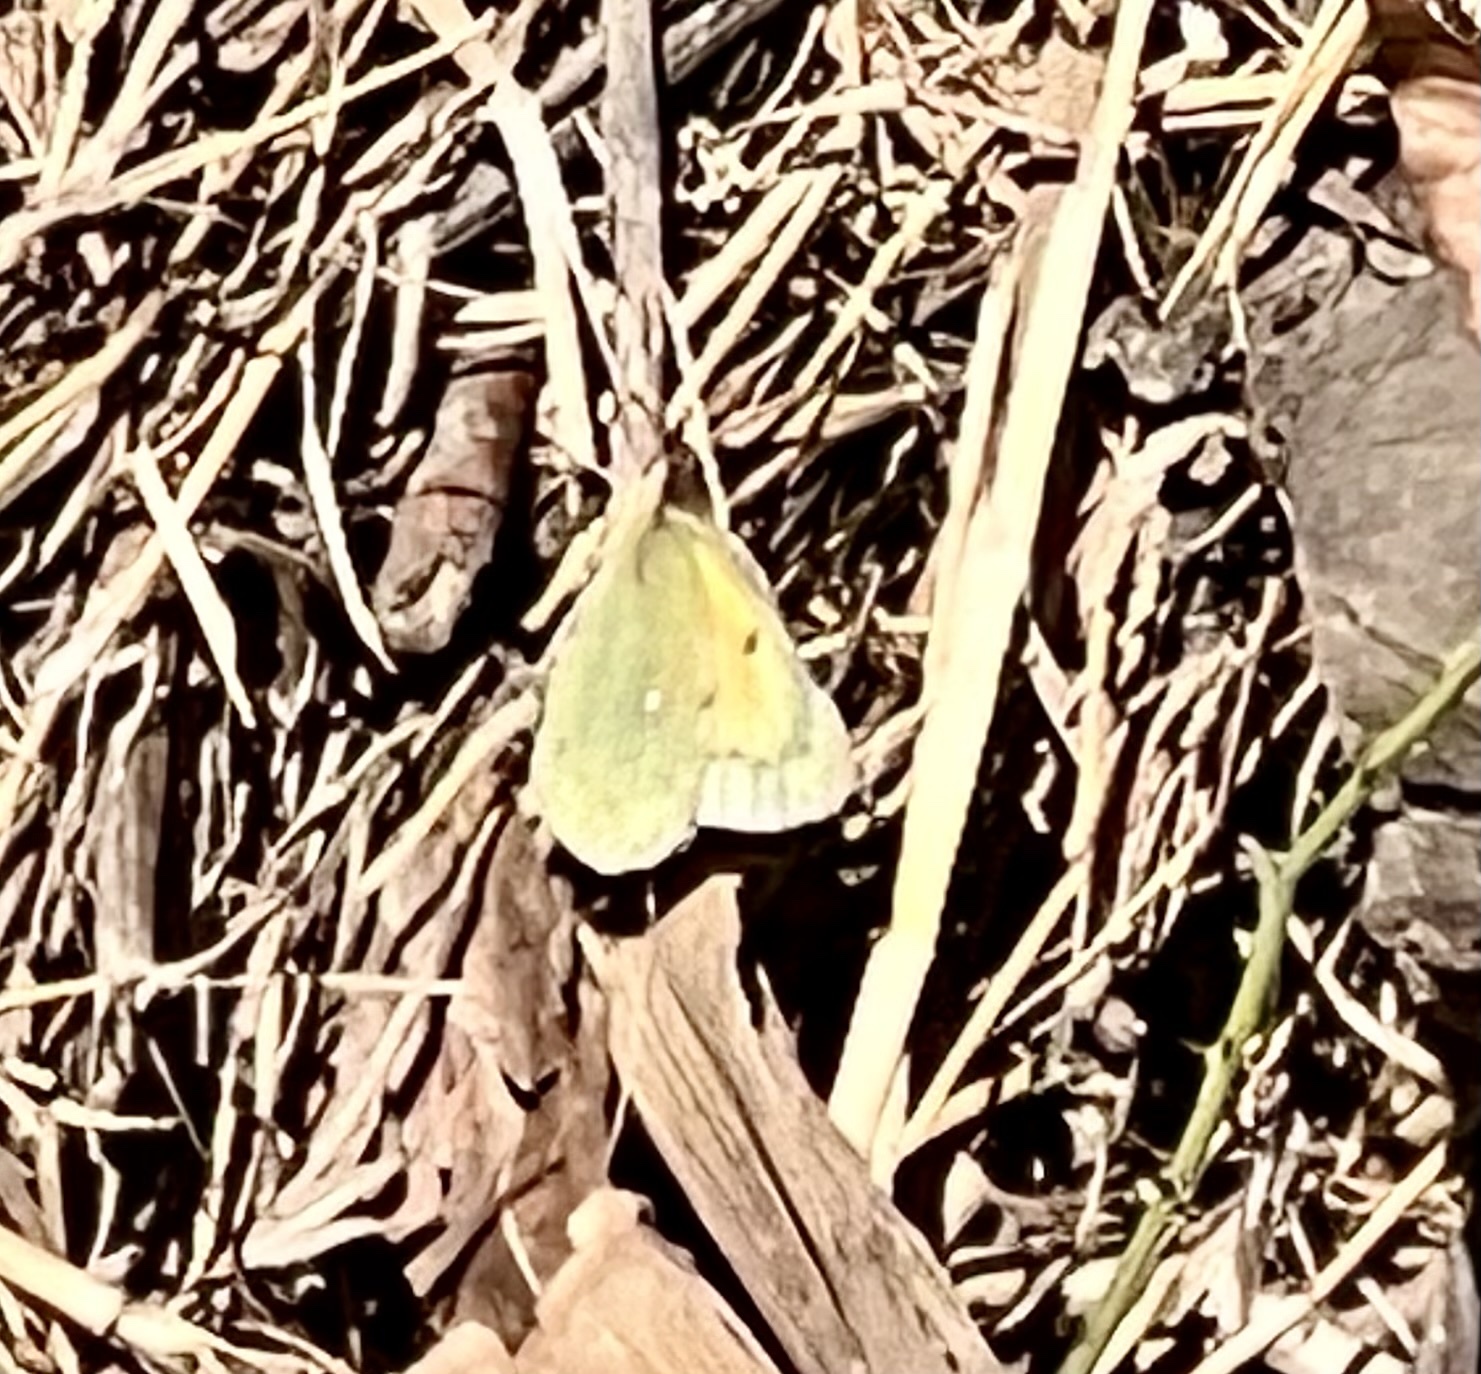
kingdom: Animalia
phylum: Arthropoda
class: Insecta
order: Lepidoptera
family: Pieridae
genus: Colias
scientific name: Colias eurytheme
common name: Alfalfa butterfly
